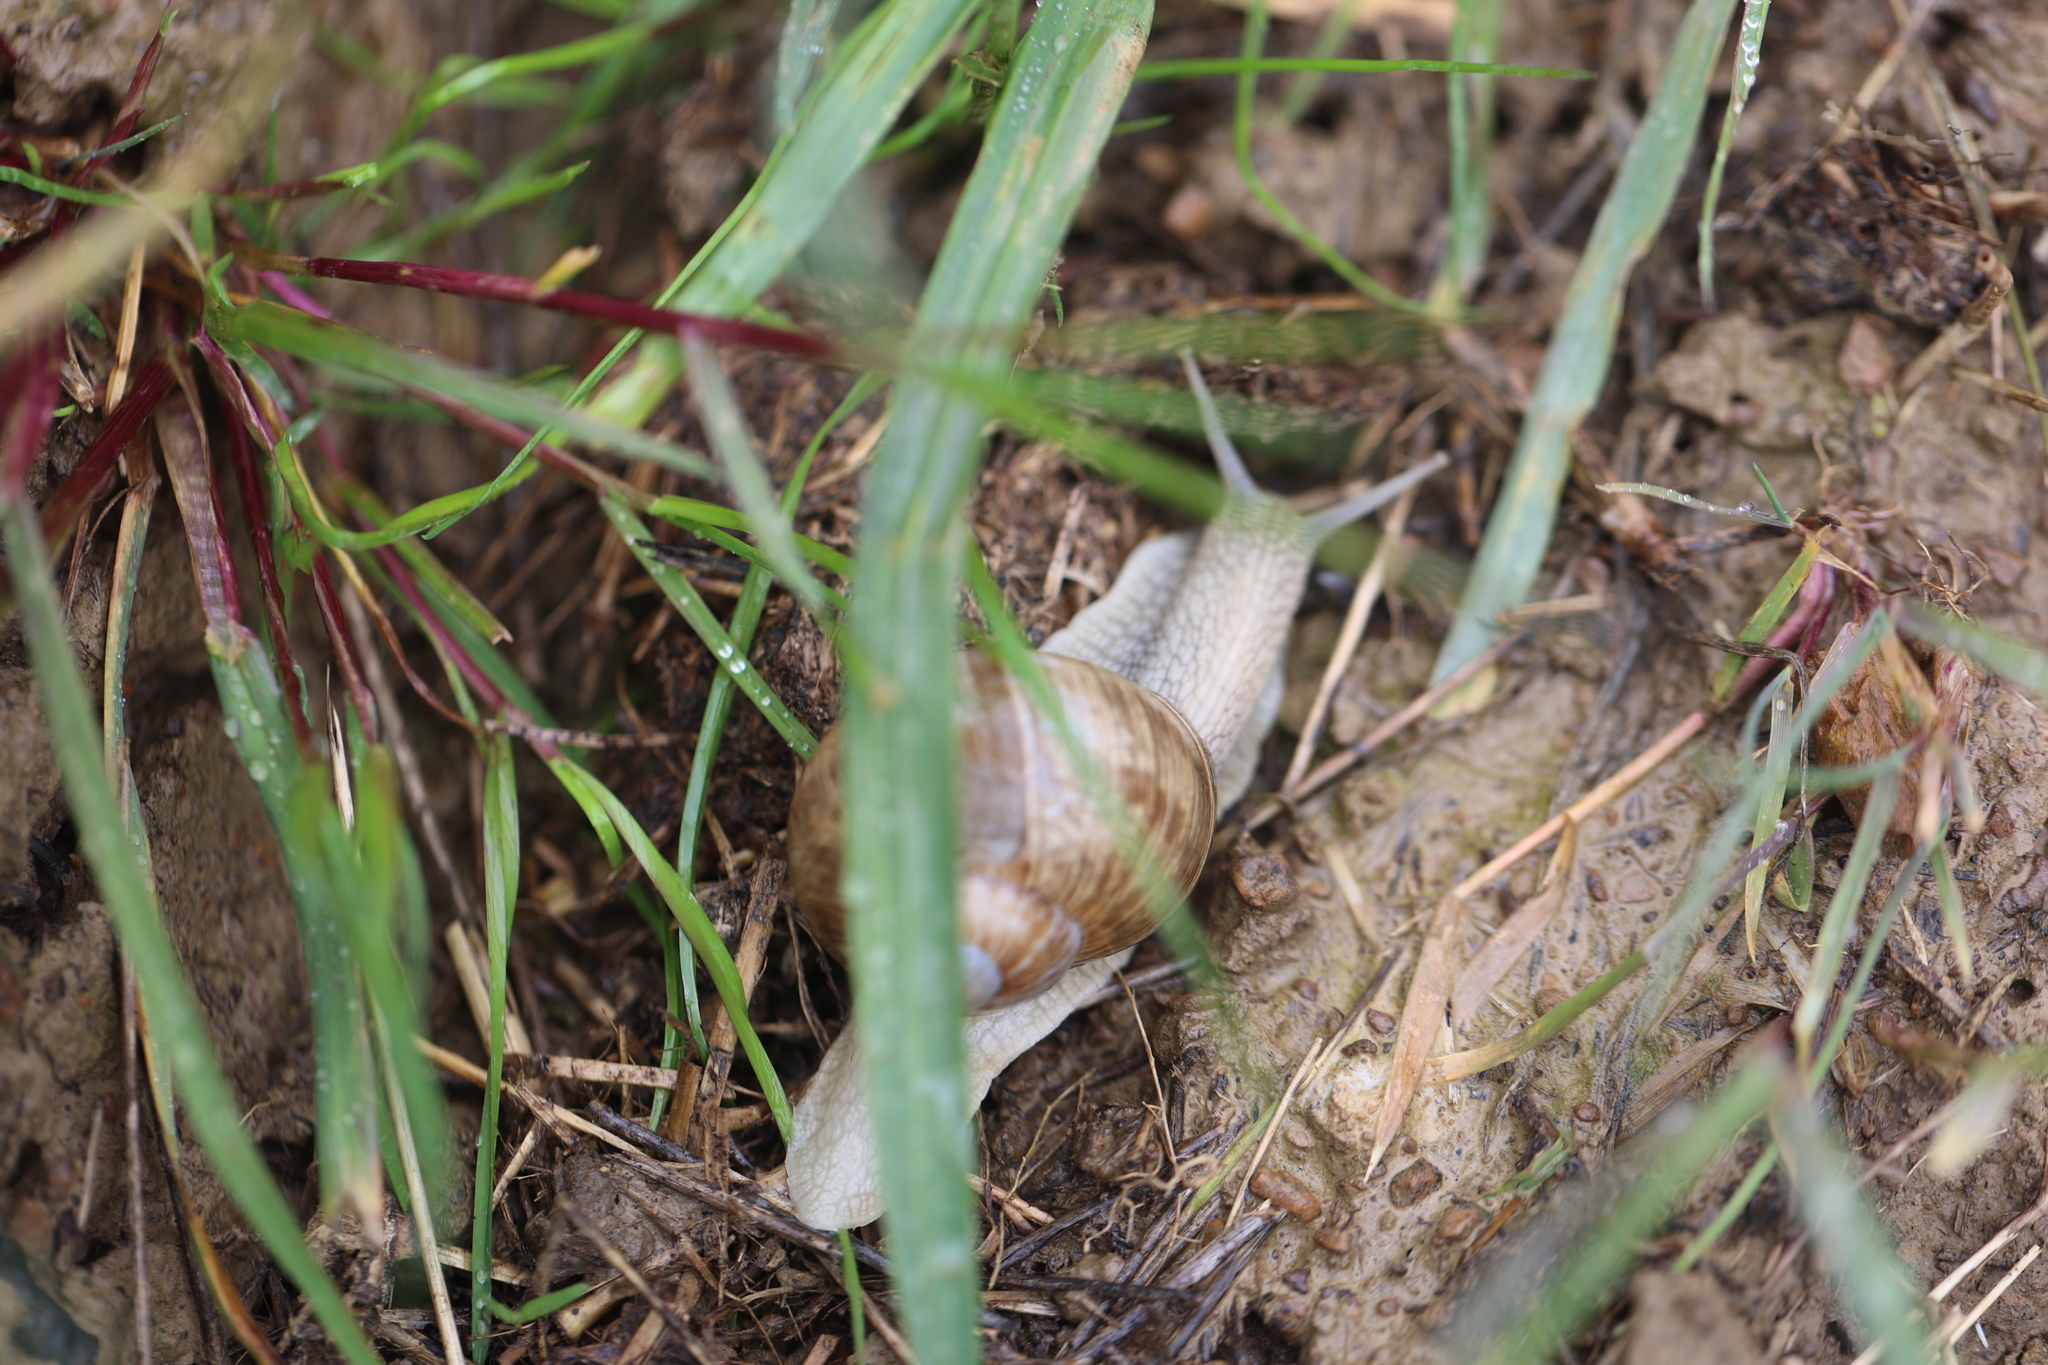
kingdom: Animalia
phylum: Mollusca
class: Gastropoda
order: Stylommatophora
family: Helicidae
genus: Helix
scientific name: Helix pomatia
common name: Roman snail
